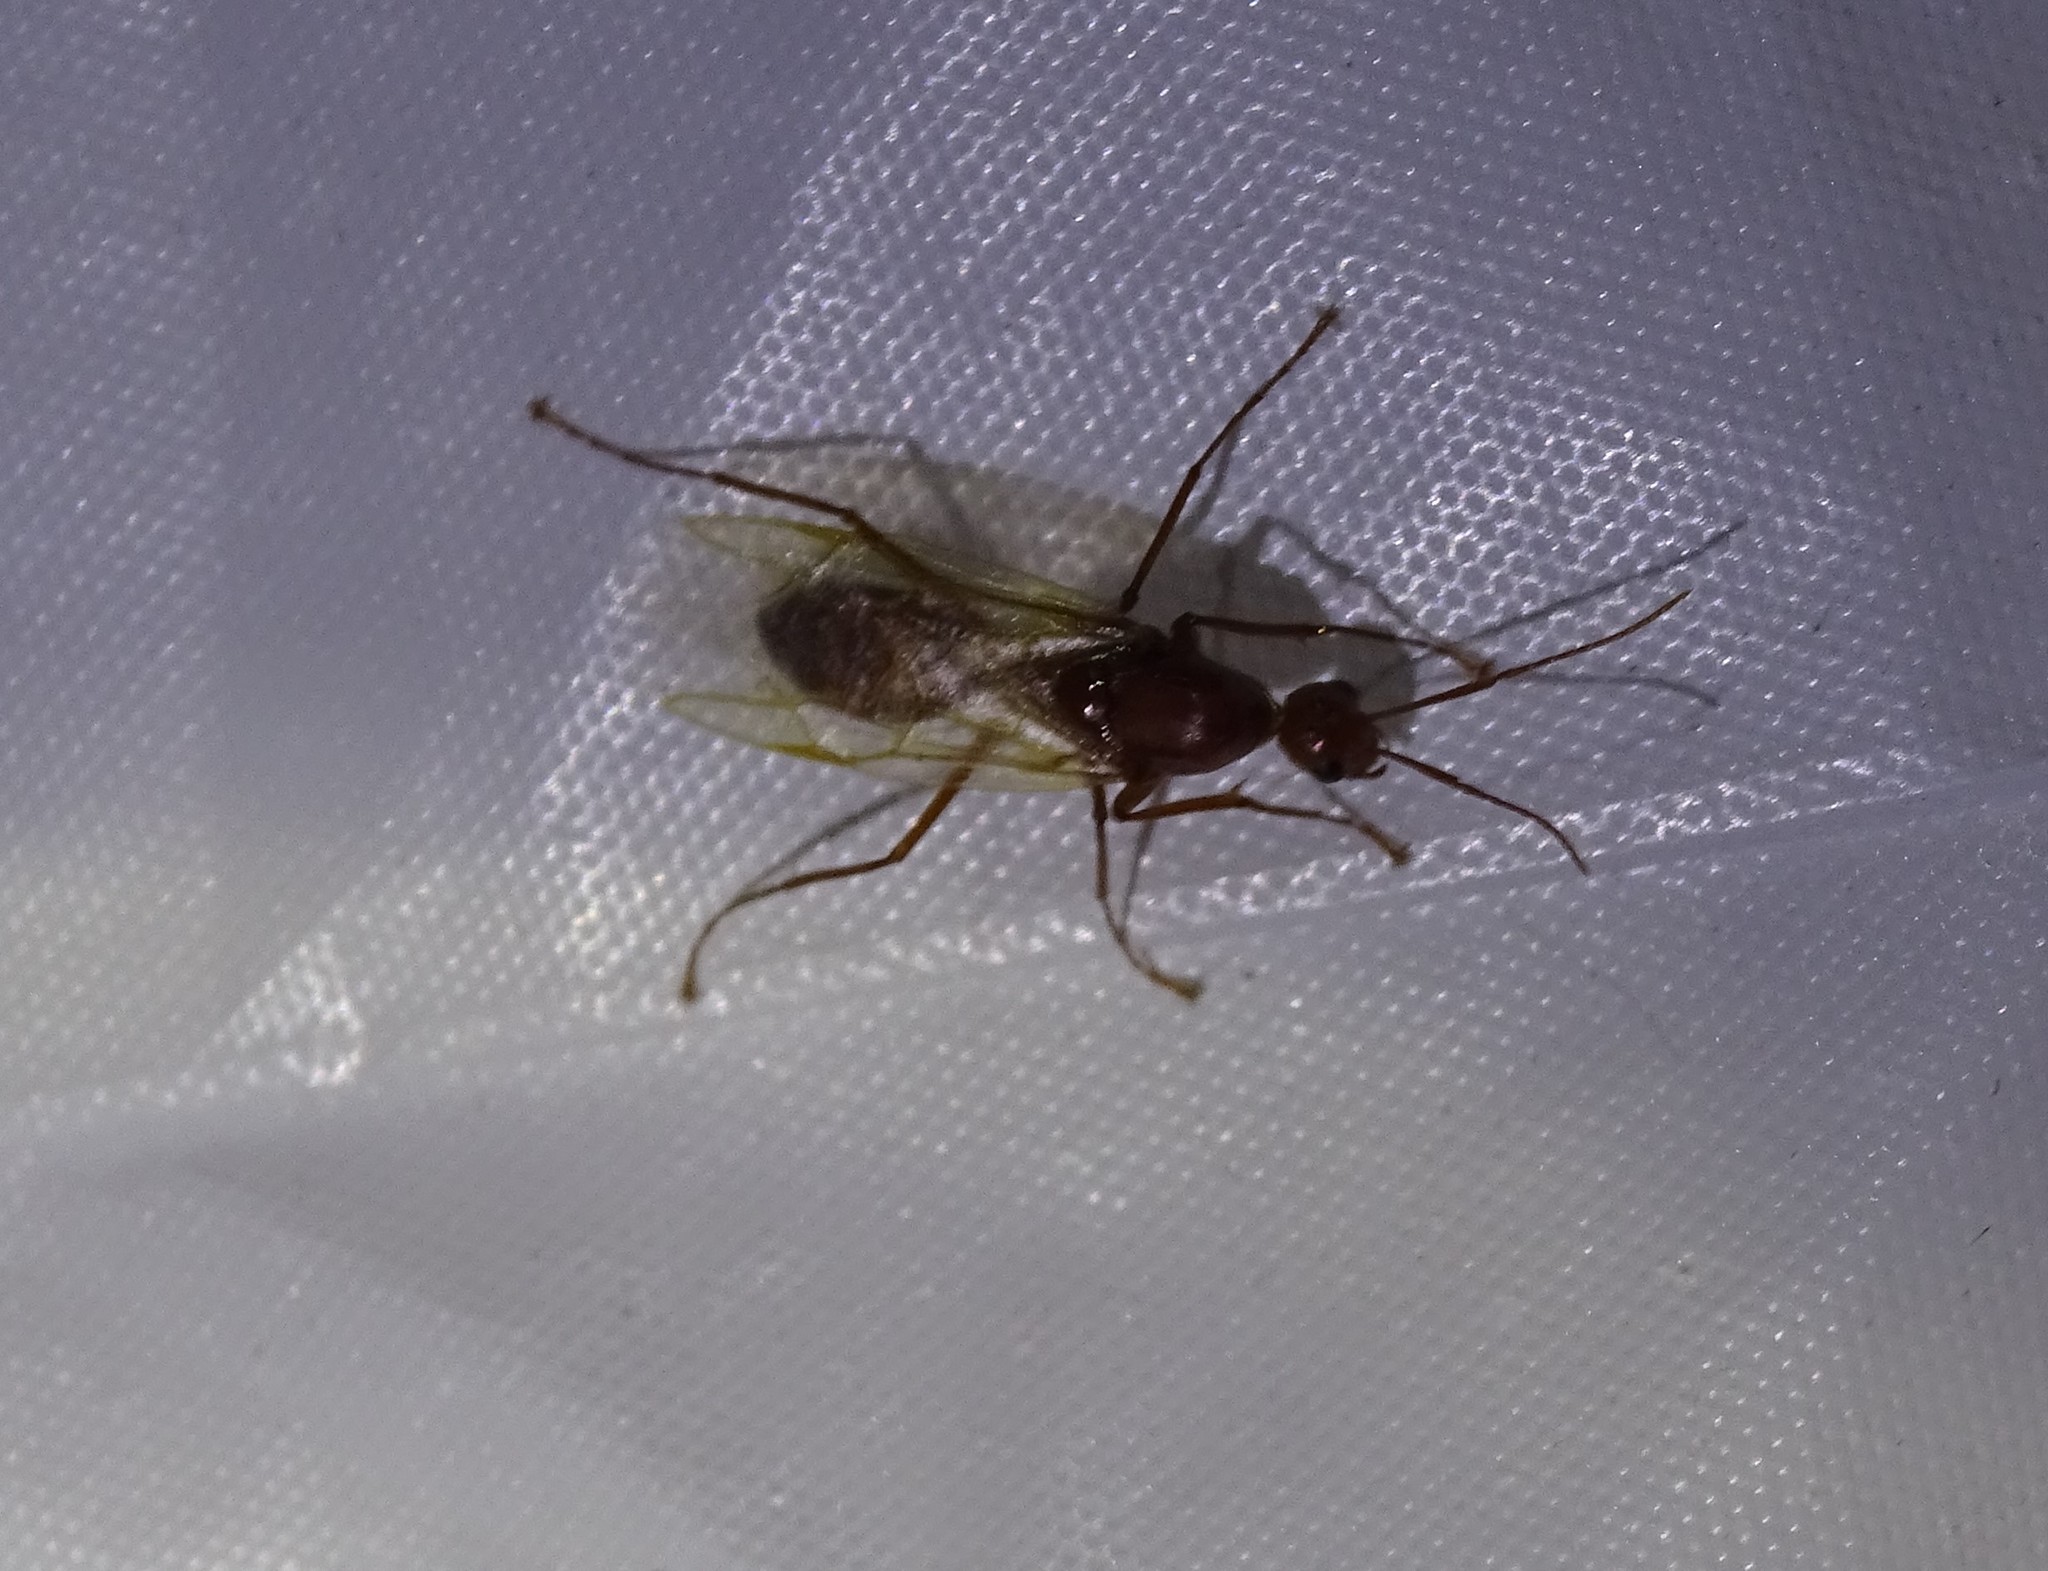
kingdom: Animalia
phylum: Arthropoda
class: Insecta
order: Hymenoptera
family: Formicidae
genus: Camponotus
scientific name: Camponotus castaneus
